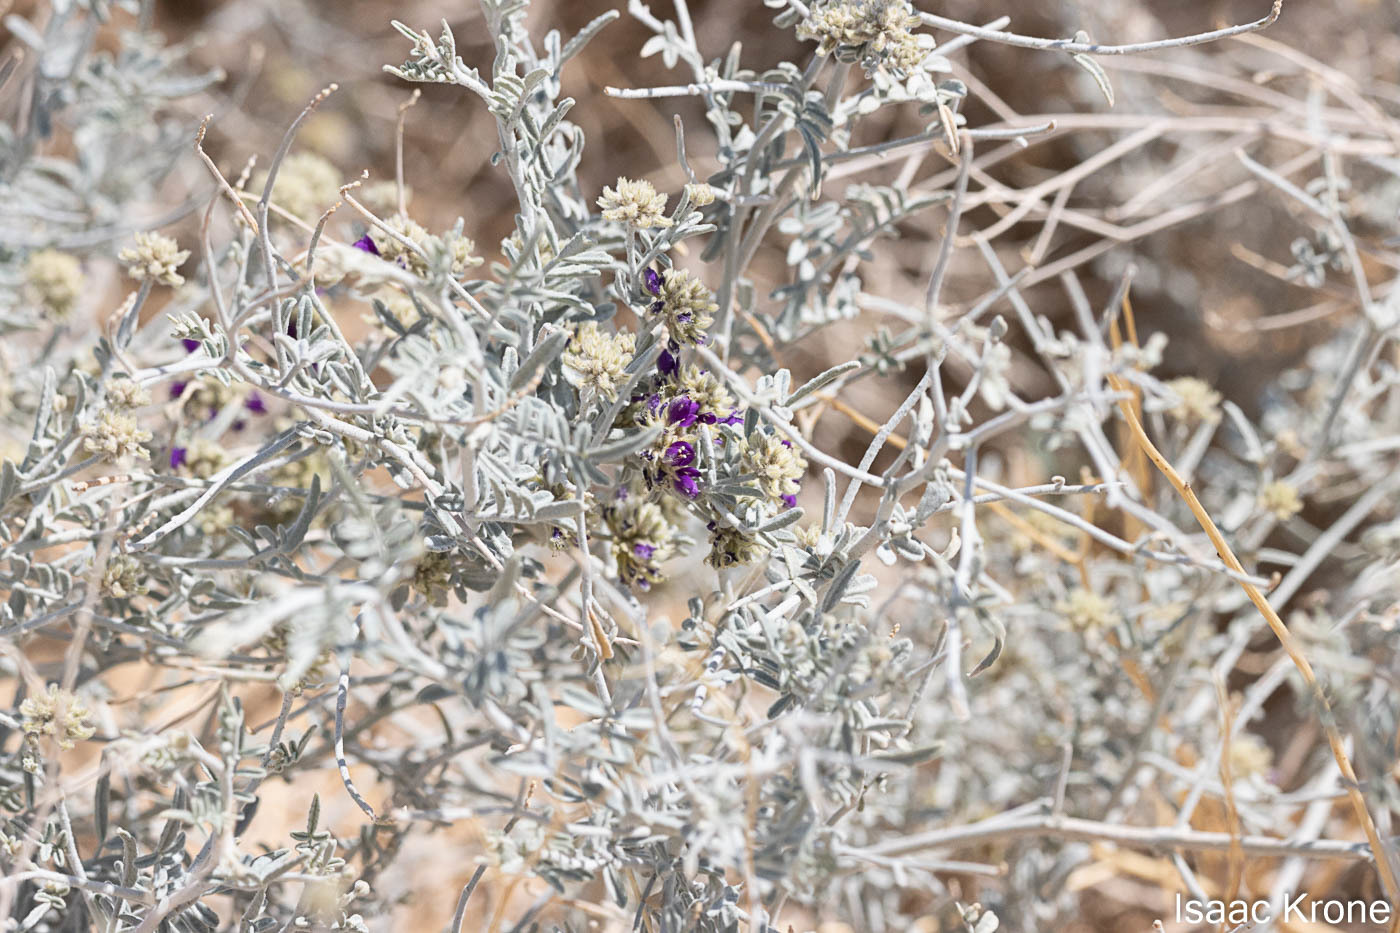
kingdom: Plantae
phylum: Tracheophyta
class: Magnoliopsida
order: Fabales
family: Fabaceae
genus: Psorothamnus
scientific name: Psorothamnus emoryi
